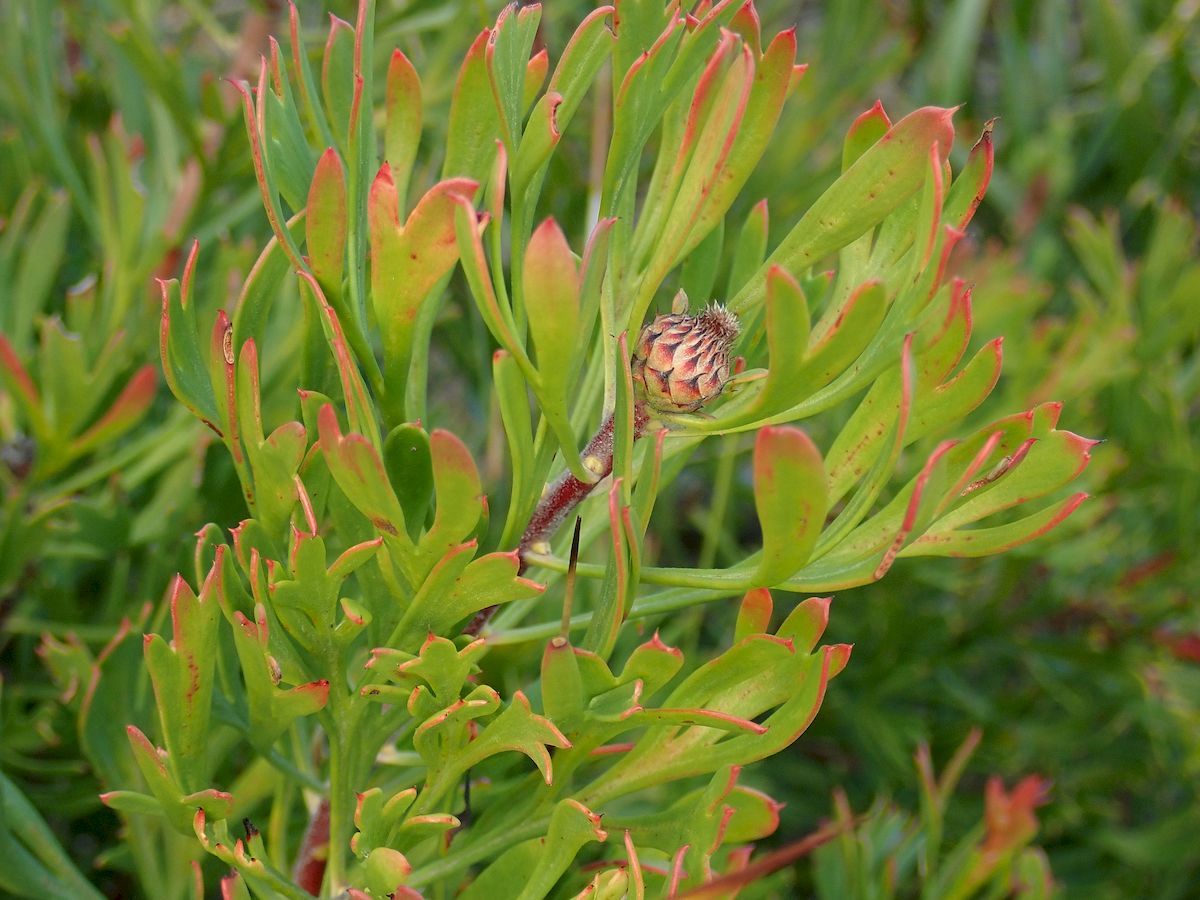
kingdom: Plantae
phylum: Tracheophyta
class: Magnoliopsida
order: Proteales
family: Proteaceae
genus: Isopogon
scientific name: Isopogon anemonifolius
